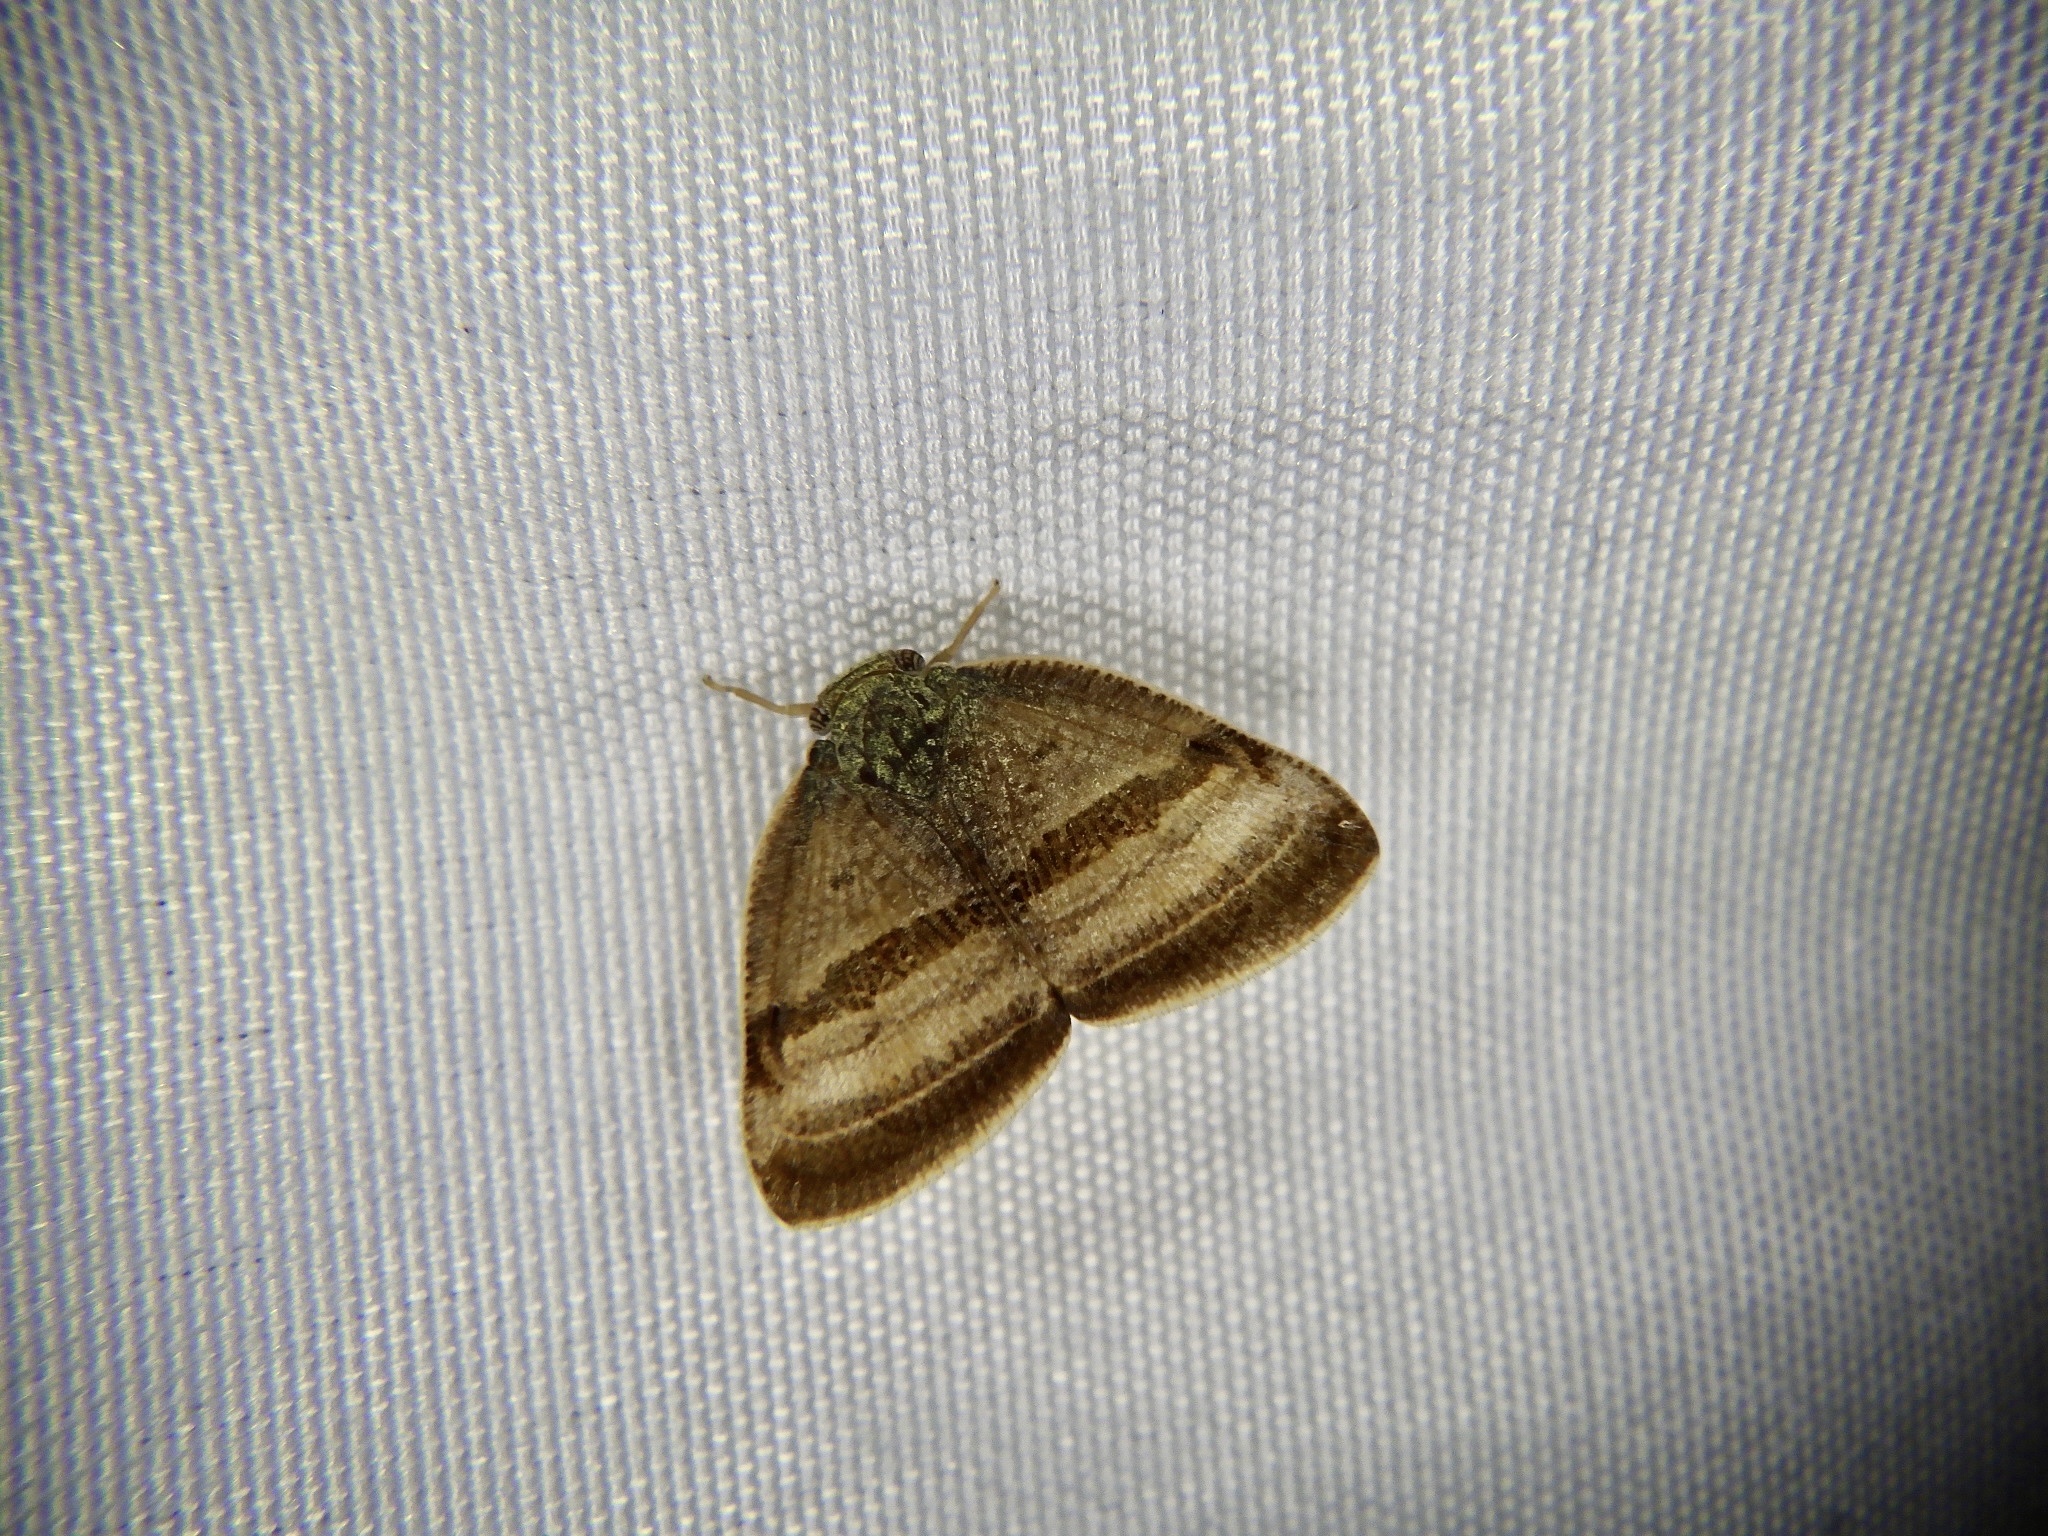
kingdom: Animalia
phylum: Arthropoda
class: Insecta
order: Hemiptera
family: Ricaniidae
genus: Ricania
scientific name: Ricania taeniata
